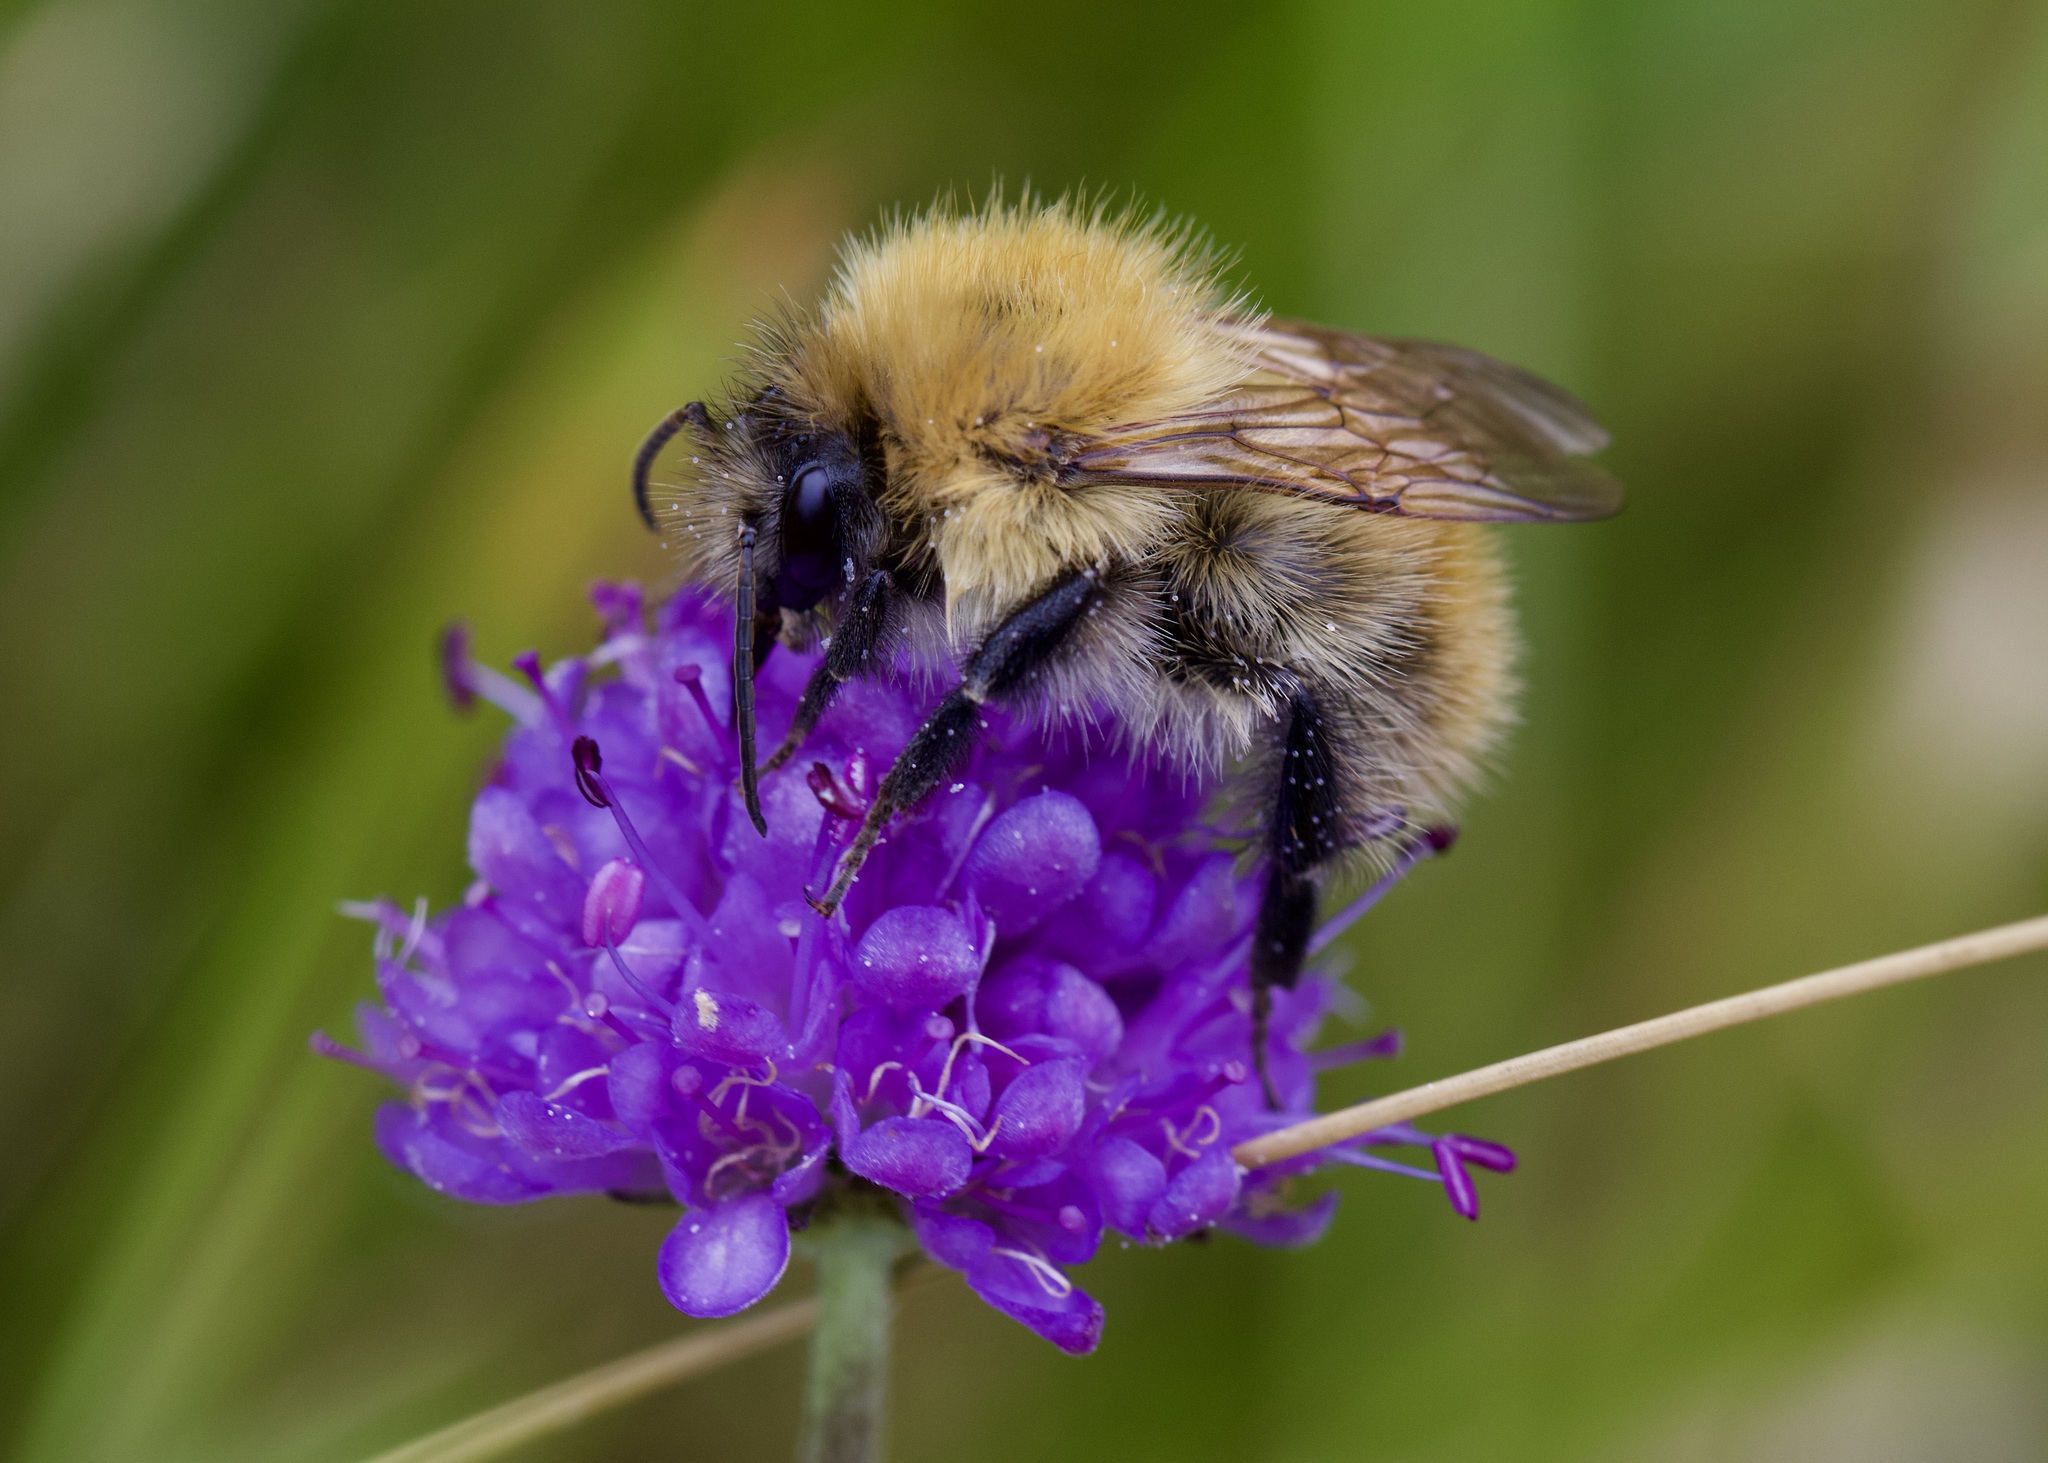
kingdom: Animalia
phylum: Arthropoda
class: Insecta
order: Hymenoptera
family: Apidae
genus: Bombus
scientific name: Bombus pascuorum
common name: Common carder bee
